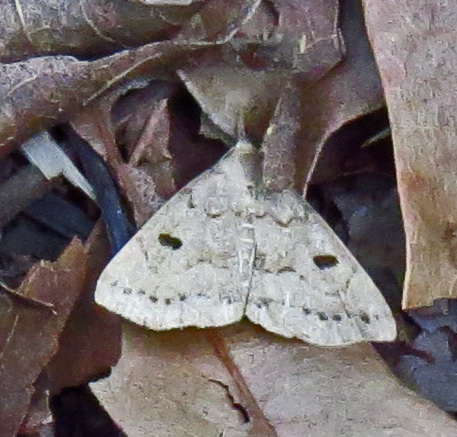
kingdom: Animalia
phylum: Arthropoda
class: Insecta
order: Lepidoptera
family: Erebidae
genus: Macrochilo
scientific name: Macrochilo morbidalis
